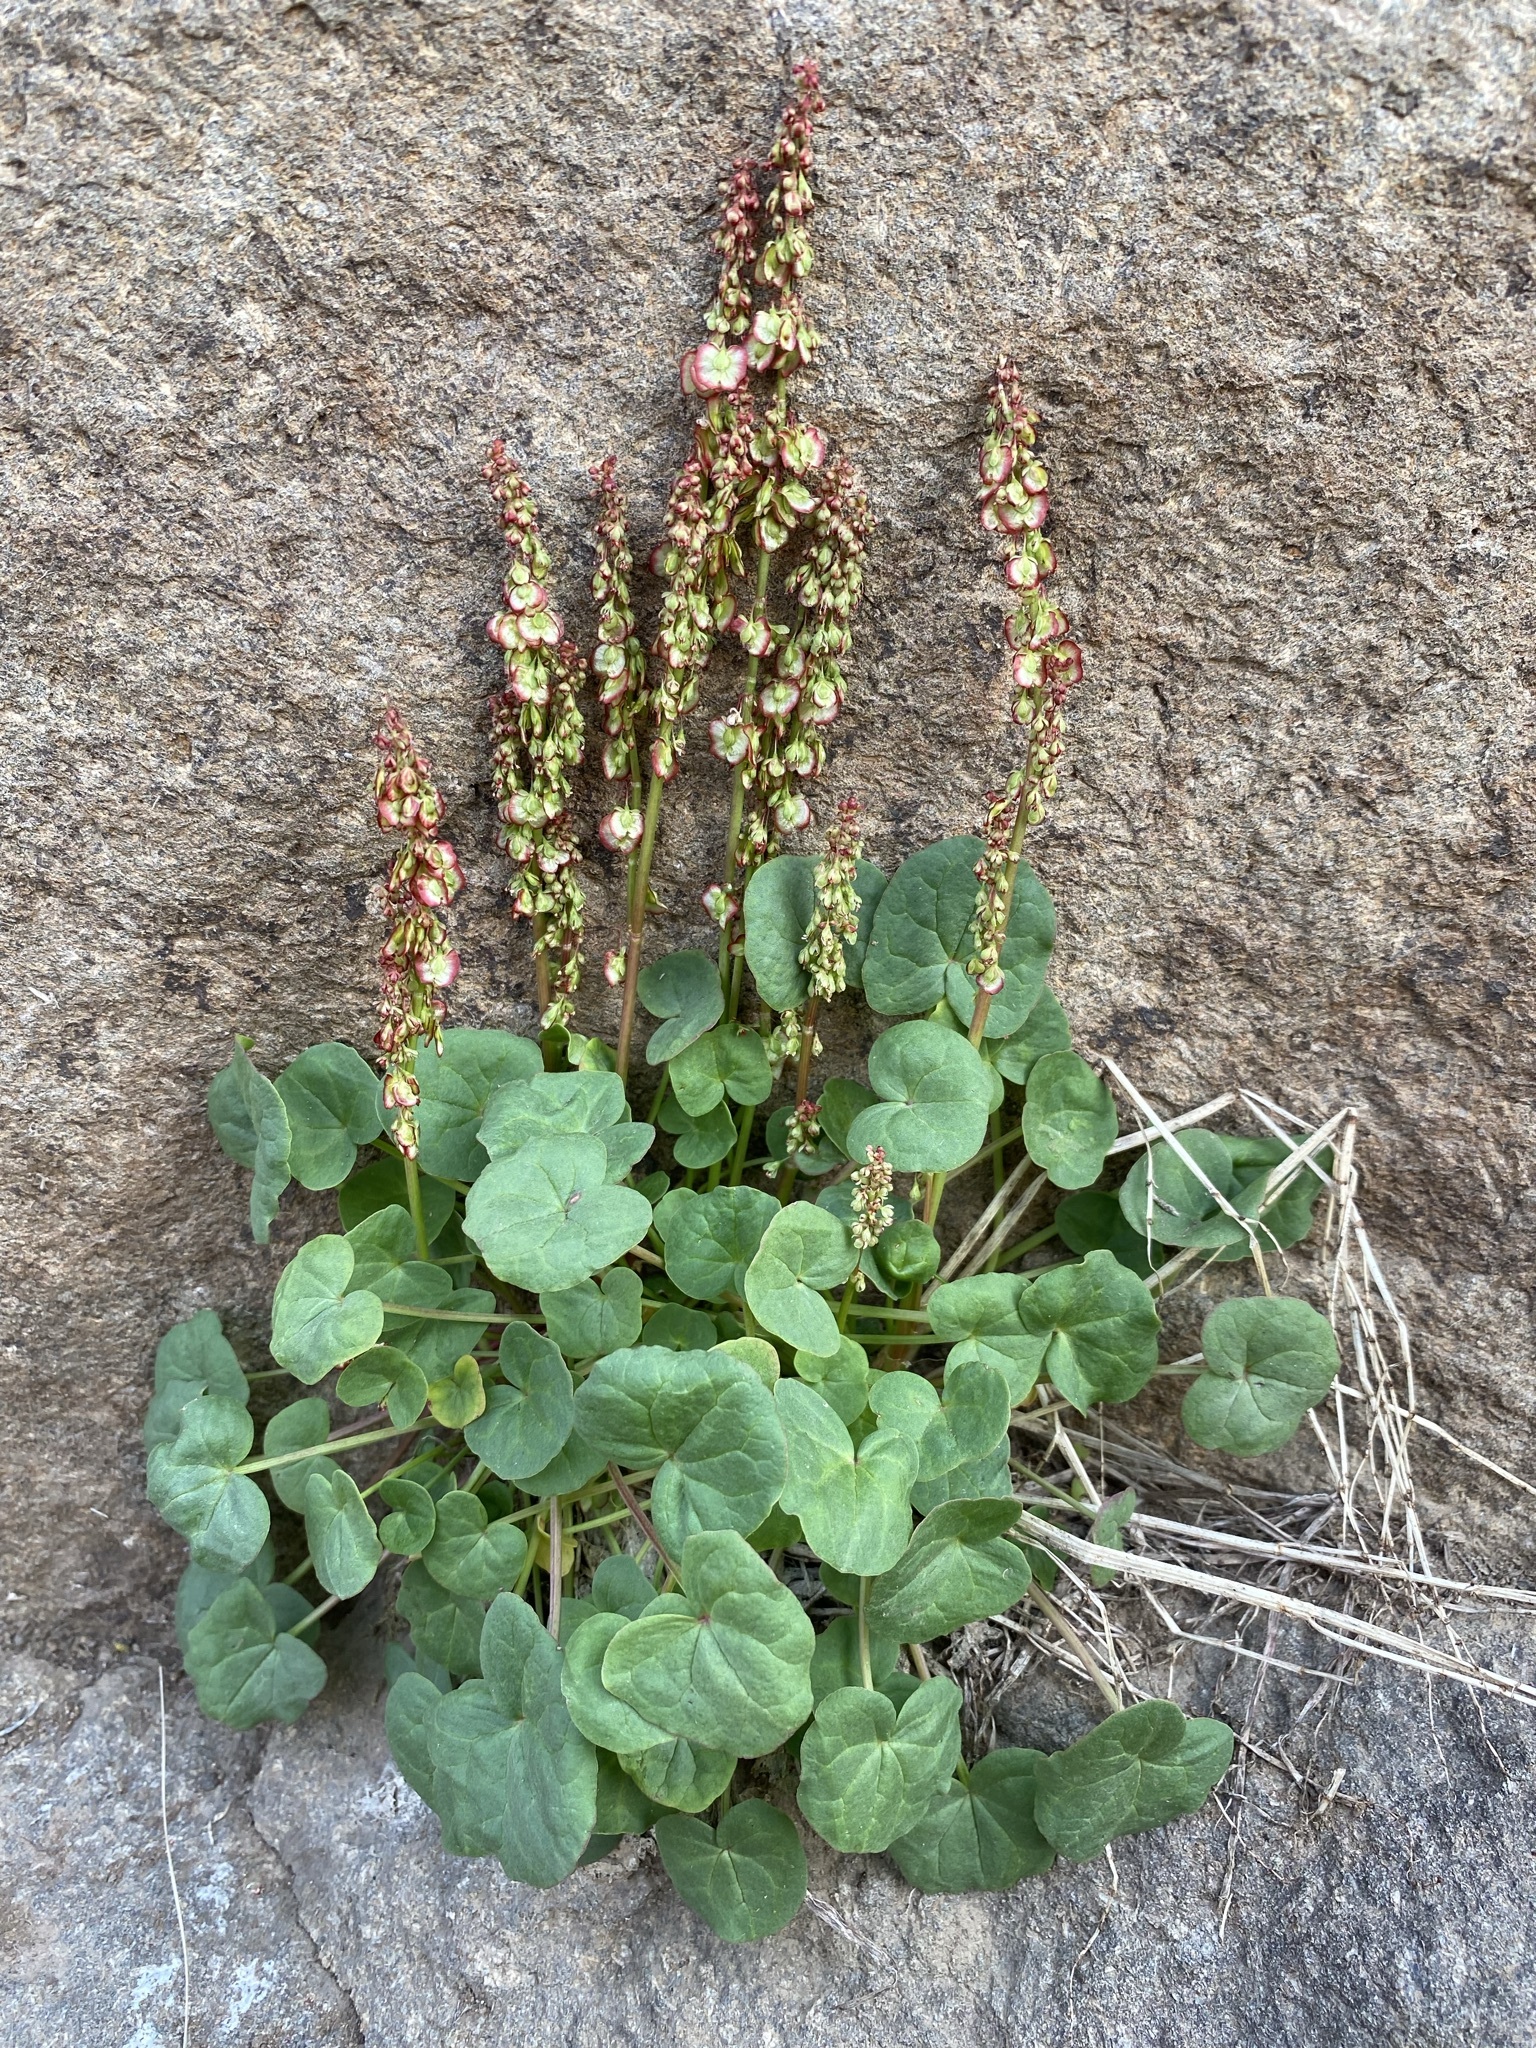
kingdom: Plantae
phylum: Tracheophyta
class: Magnoliopsida
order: Caryophyllales
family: Polygonaceae
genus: Oxyria
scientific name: Oxyria digyna
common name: Alpine mountain-sorrel
